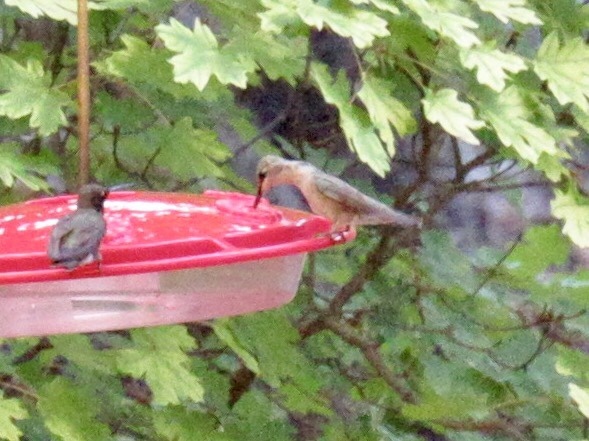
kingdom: Animalia
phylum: Chordata
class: Aves
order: Apodiformes
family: Trochilidae
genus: Archilochus
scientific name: Archilochus alexandri
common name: Black-chinned hummingbird
